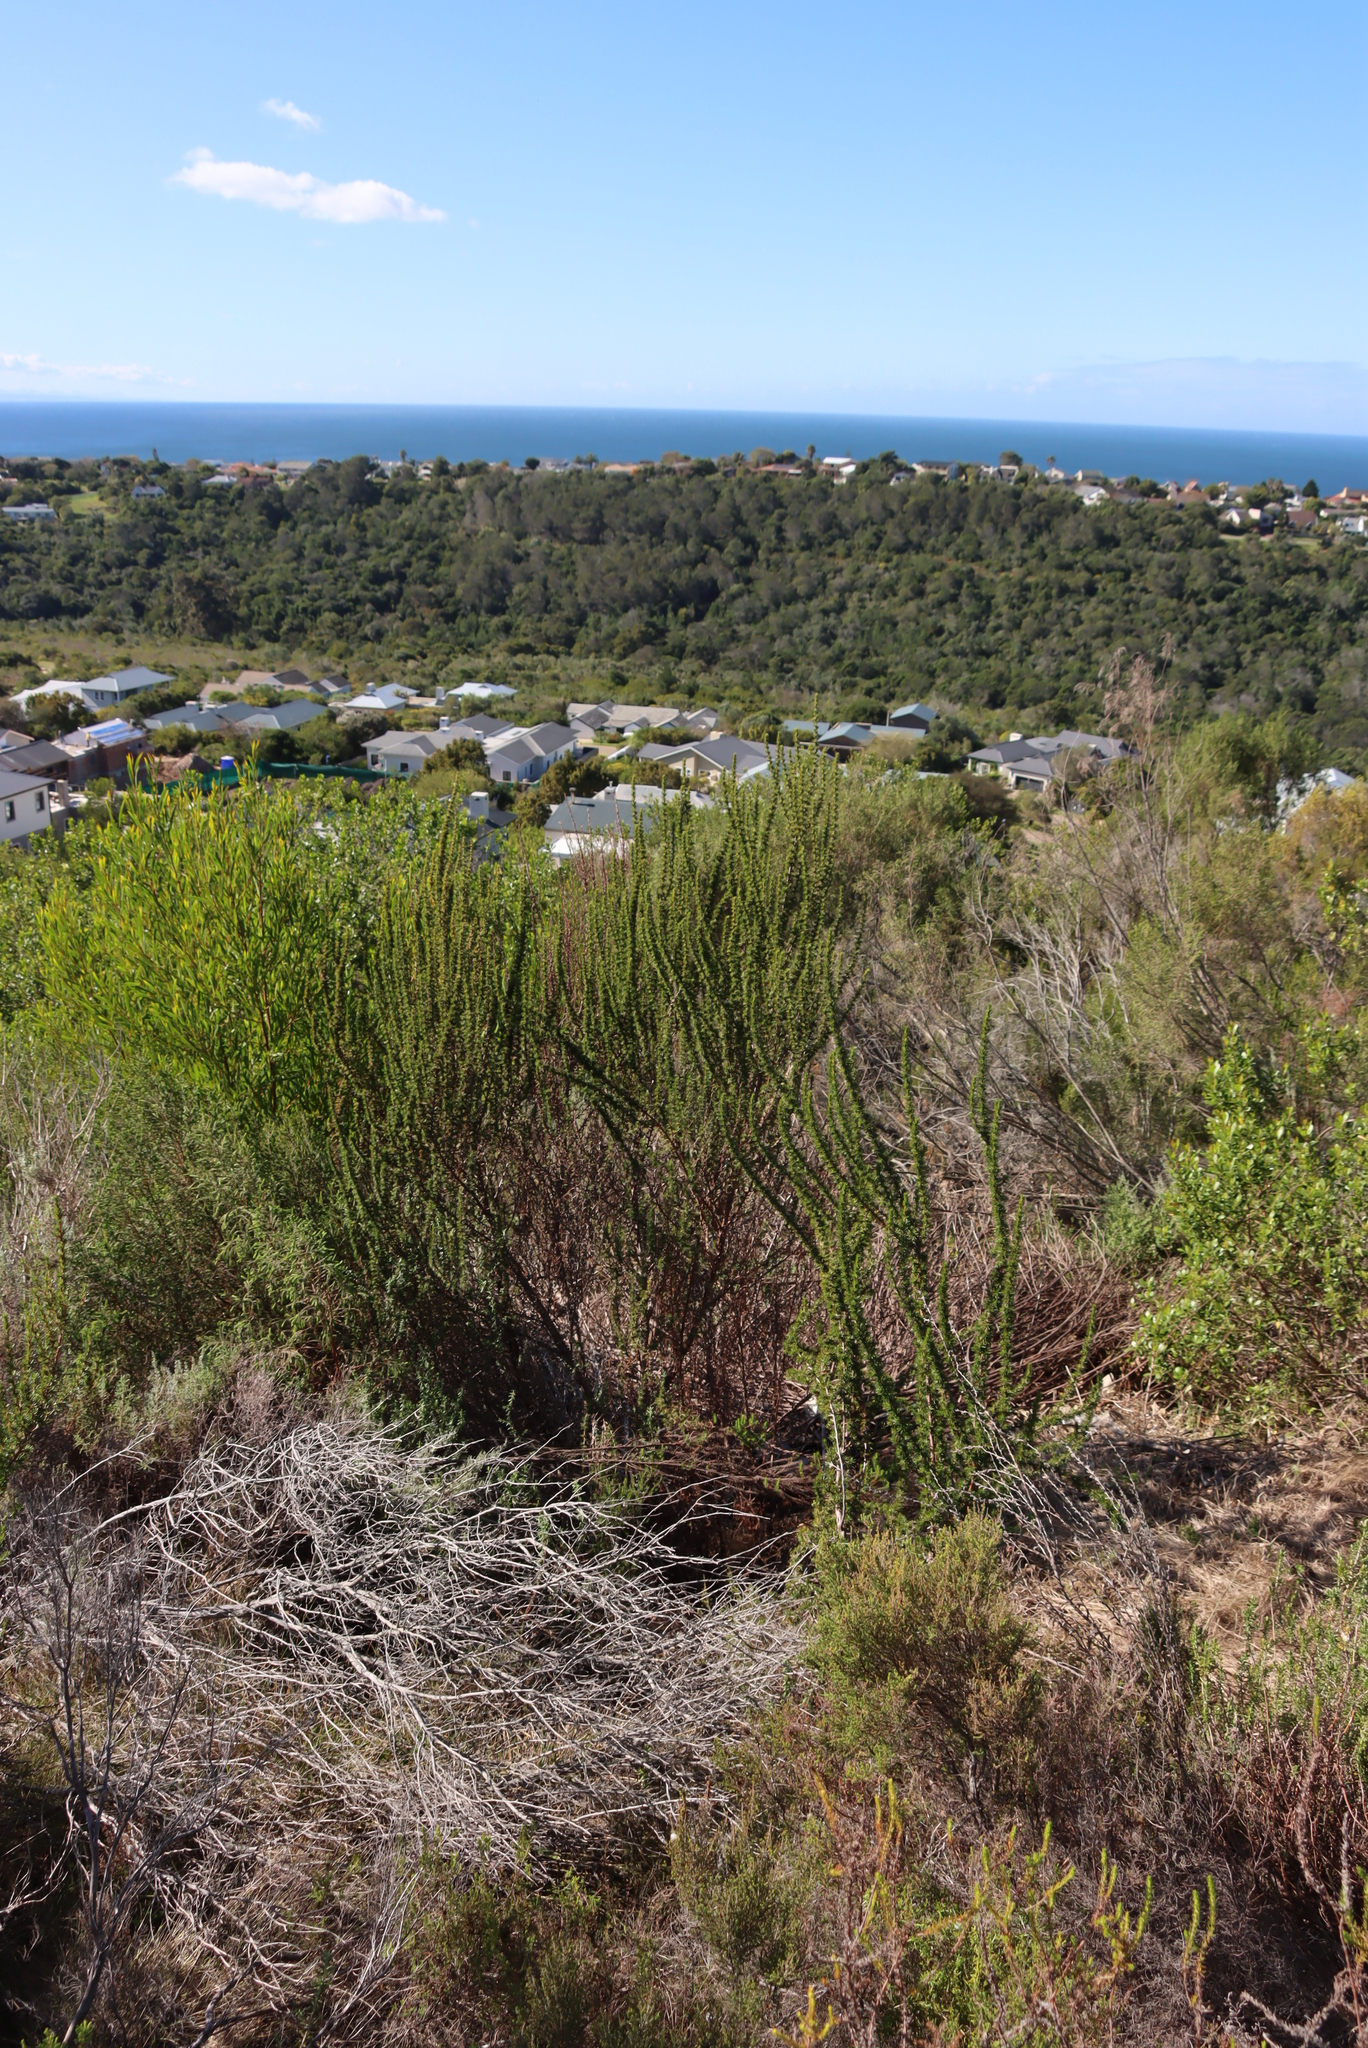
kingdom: Plantae
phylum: Tracheophyta
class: Magnoliopsida
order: Rosales
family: Rosaceae
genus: Cliffortia
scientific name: Cliffortia stricta
